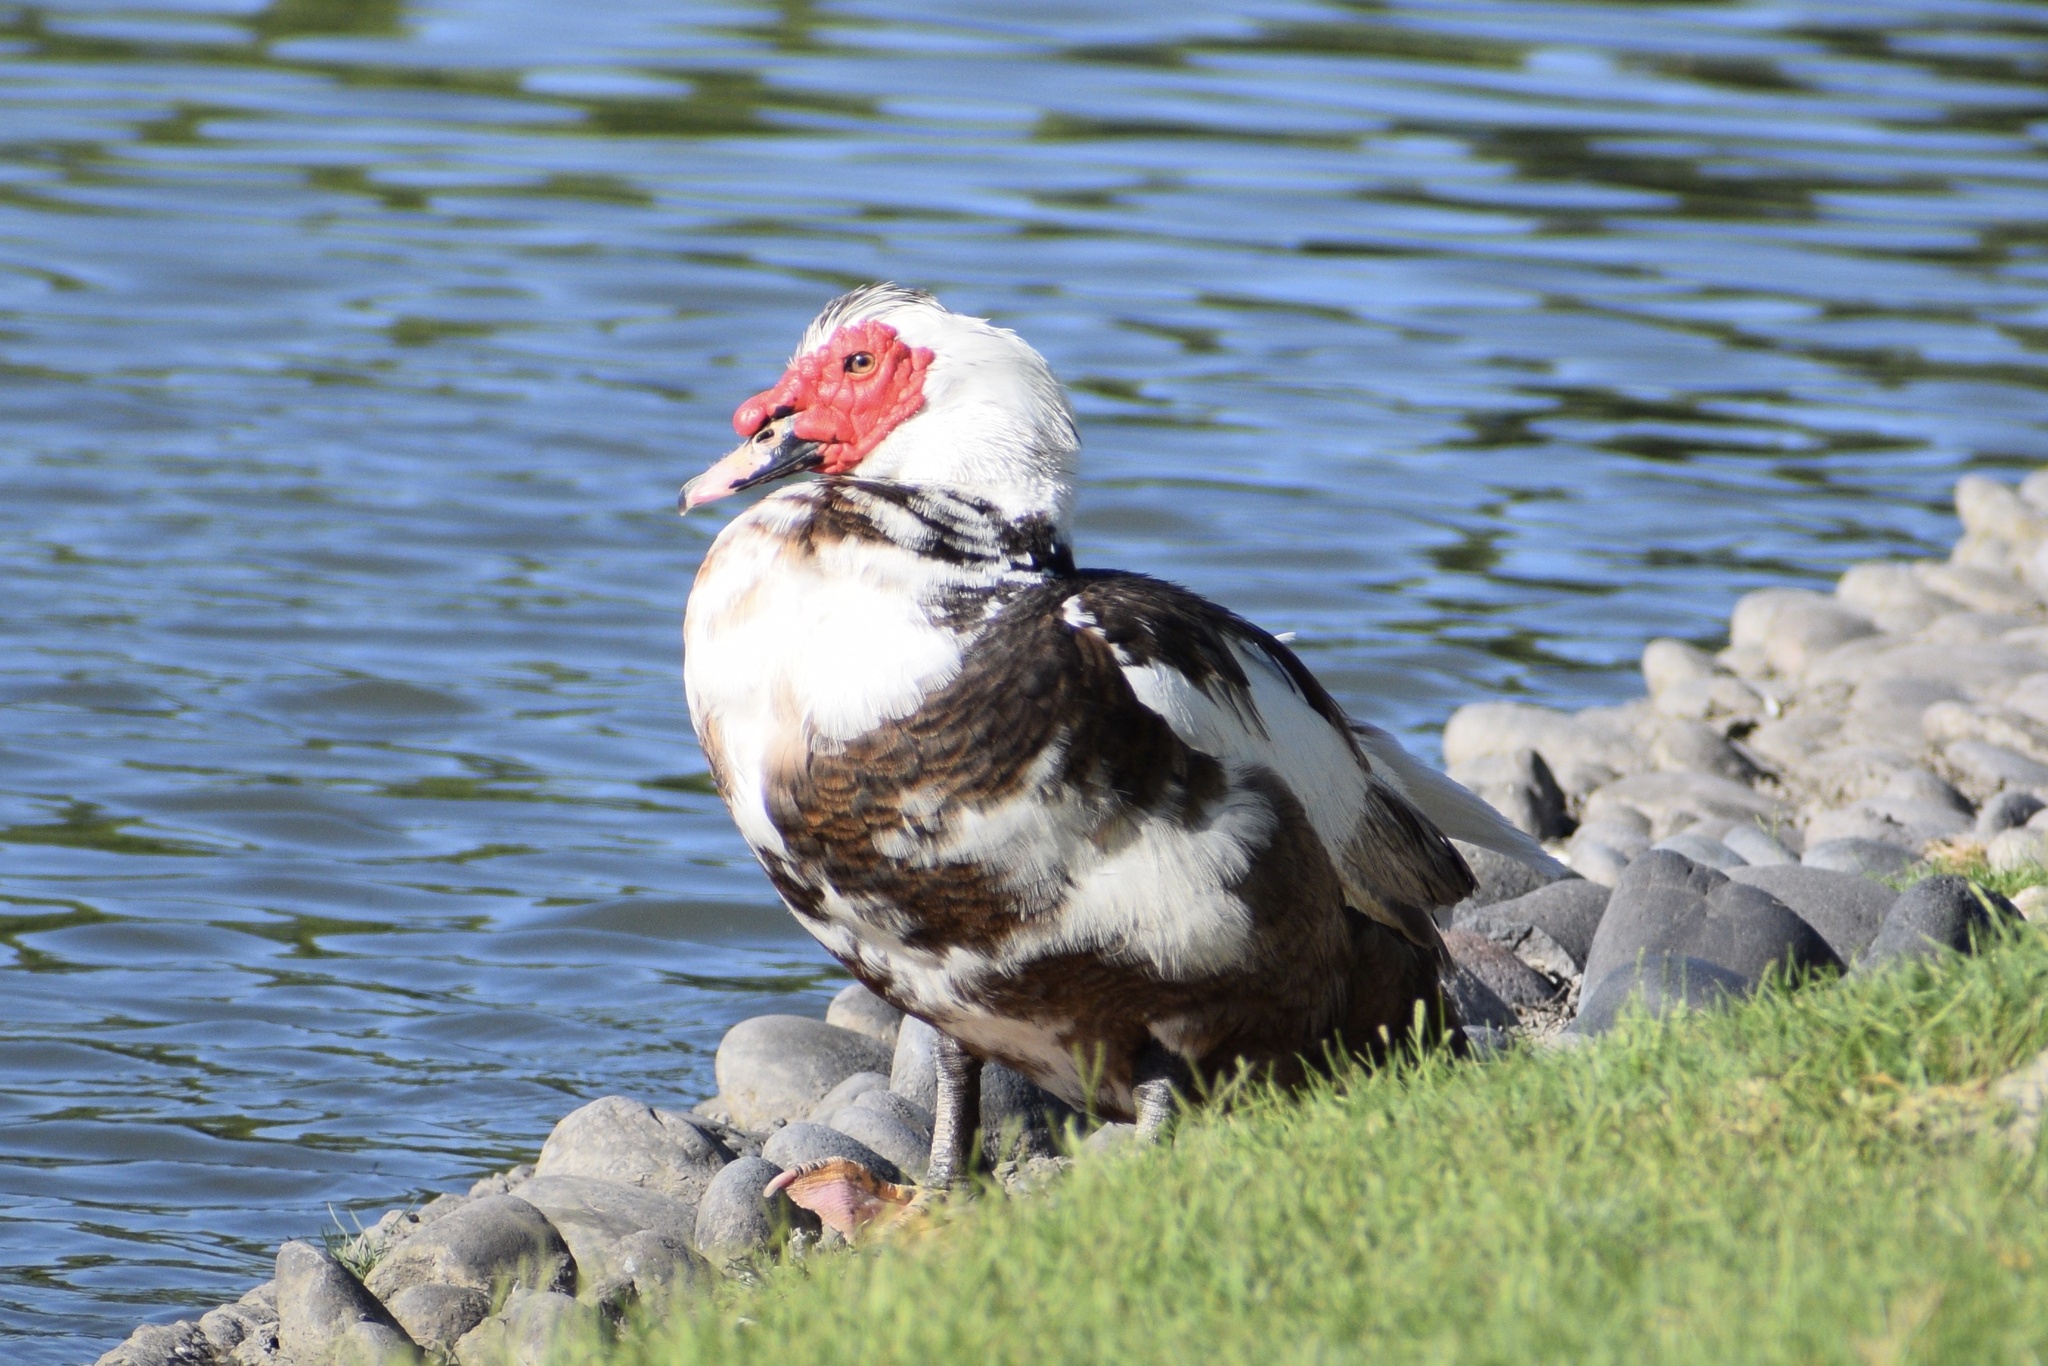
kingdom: Animalia
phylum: Chordata
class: Aves
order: Anseriformes
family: Anatidae
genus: Cairina
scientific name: Cairina moschata
